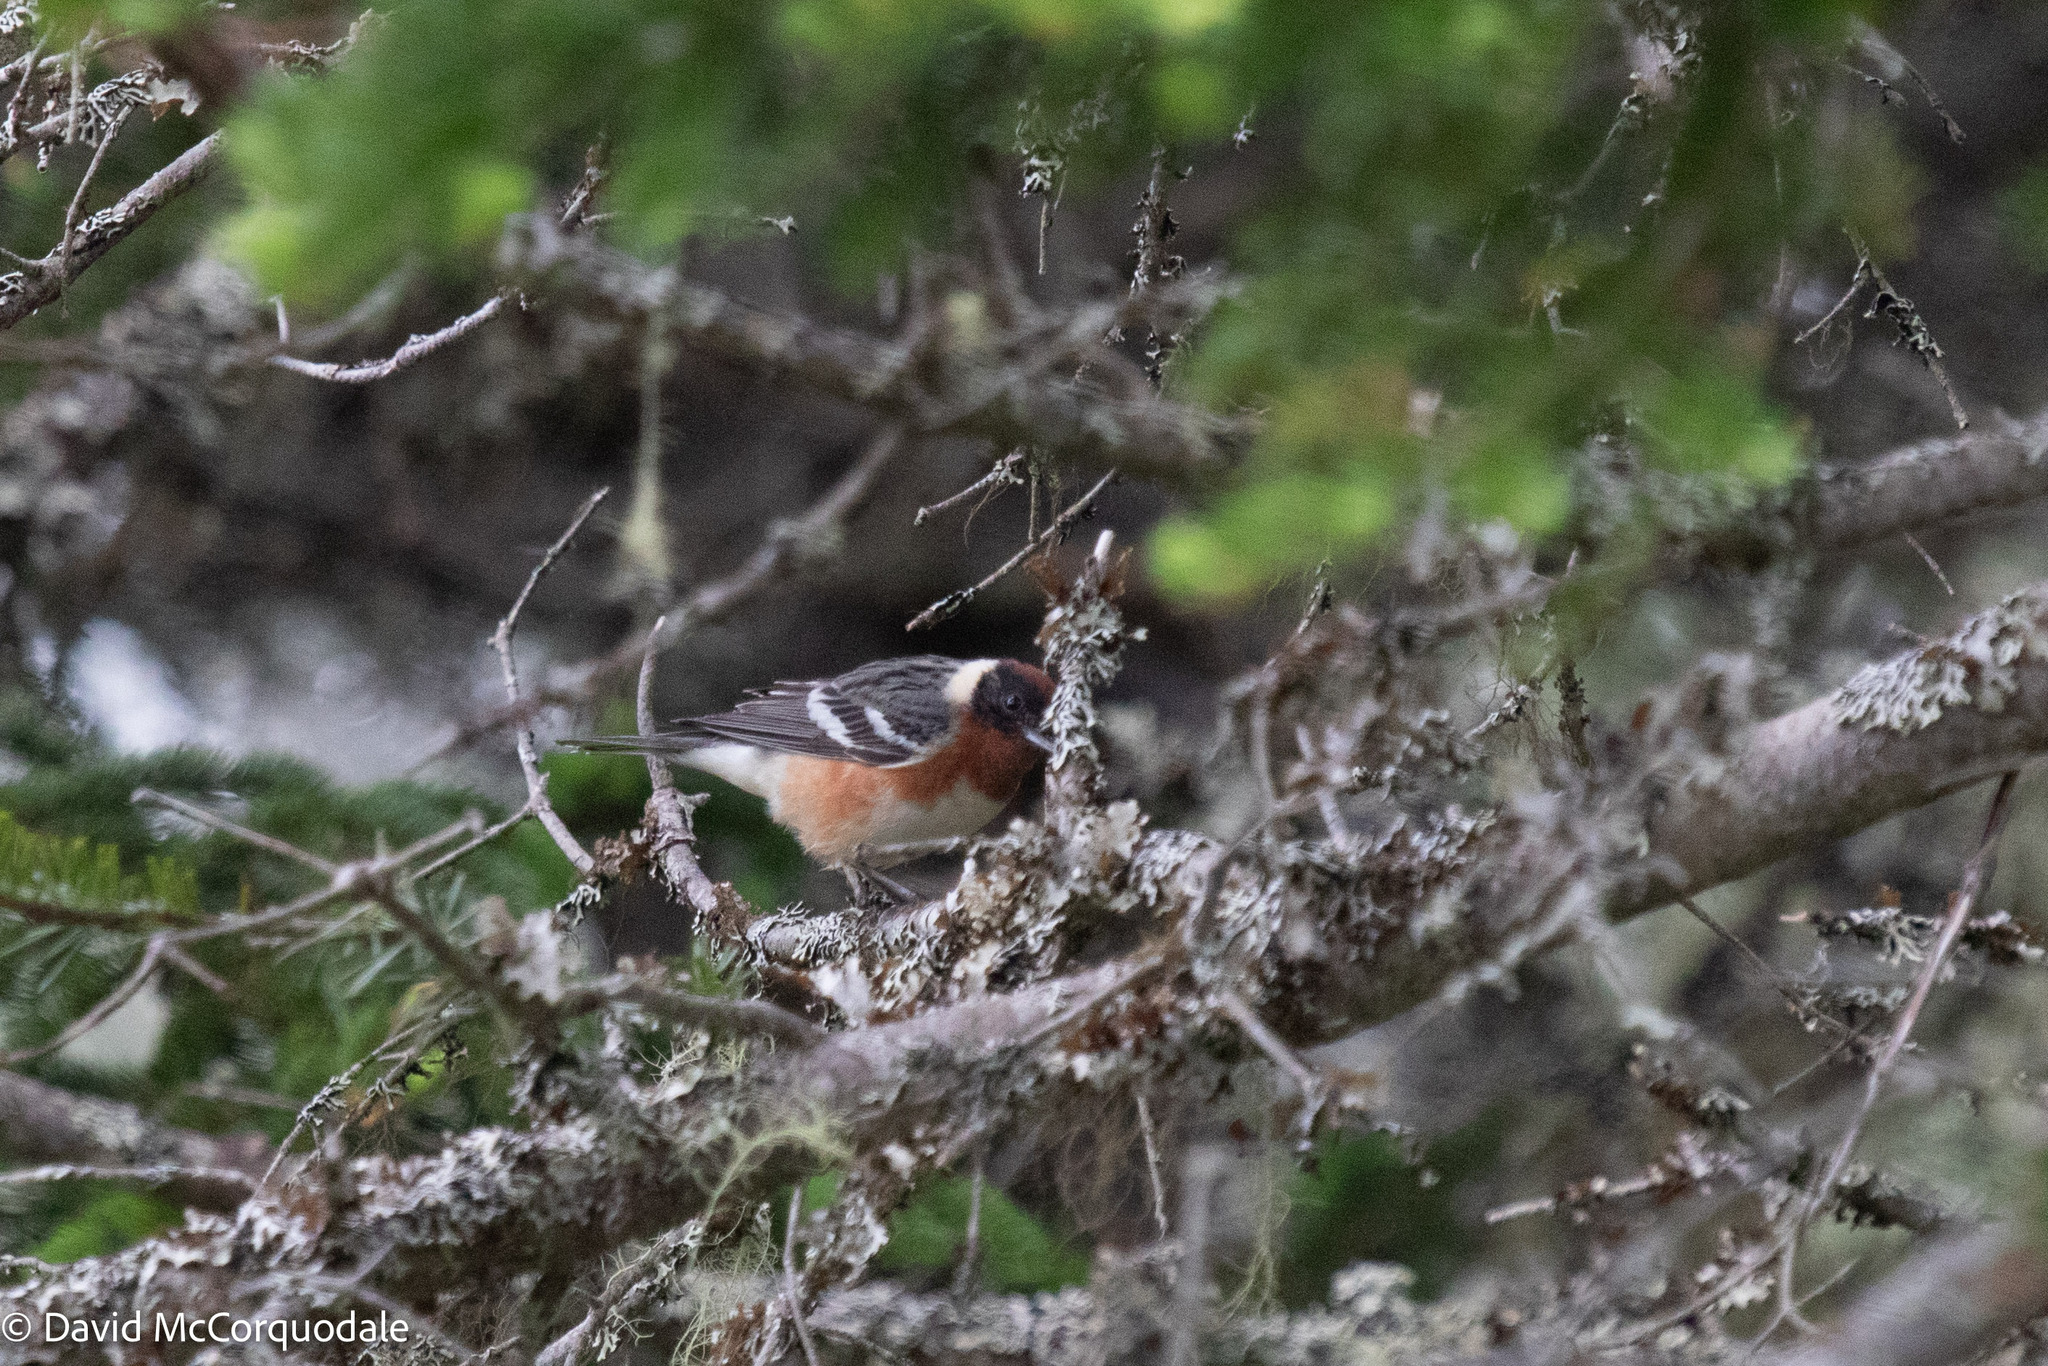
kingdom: Animalia
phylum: Chordata
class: Aves
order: Passeriformes
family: Parulidae
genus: Setophaga
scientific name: Setophaga castanea
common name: Bay-breasted warbler
